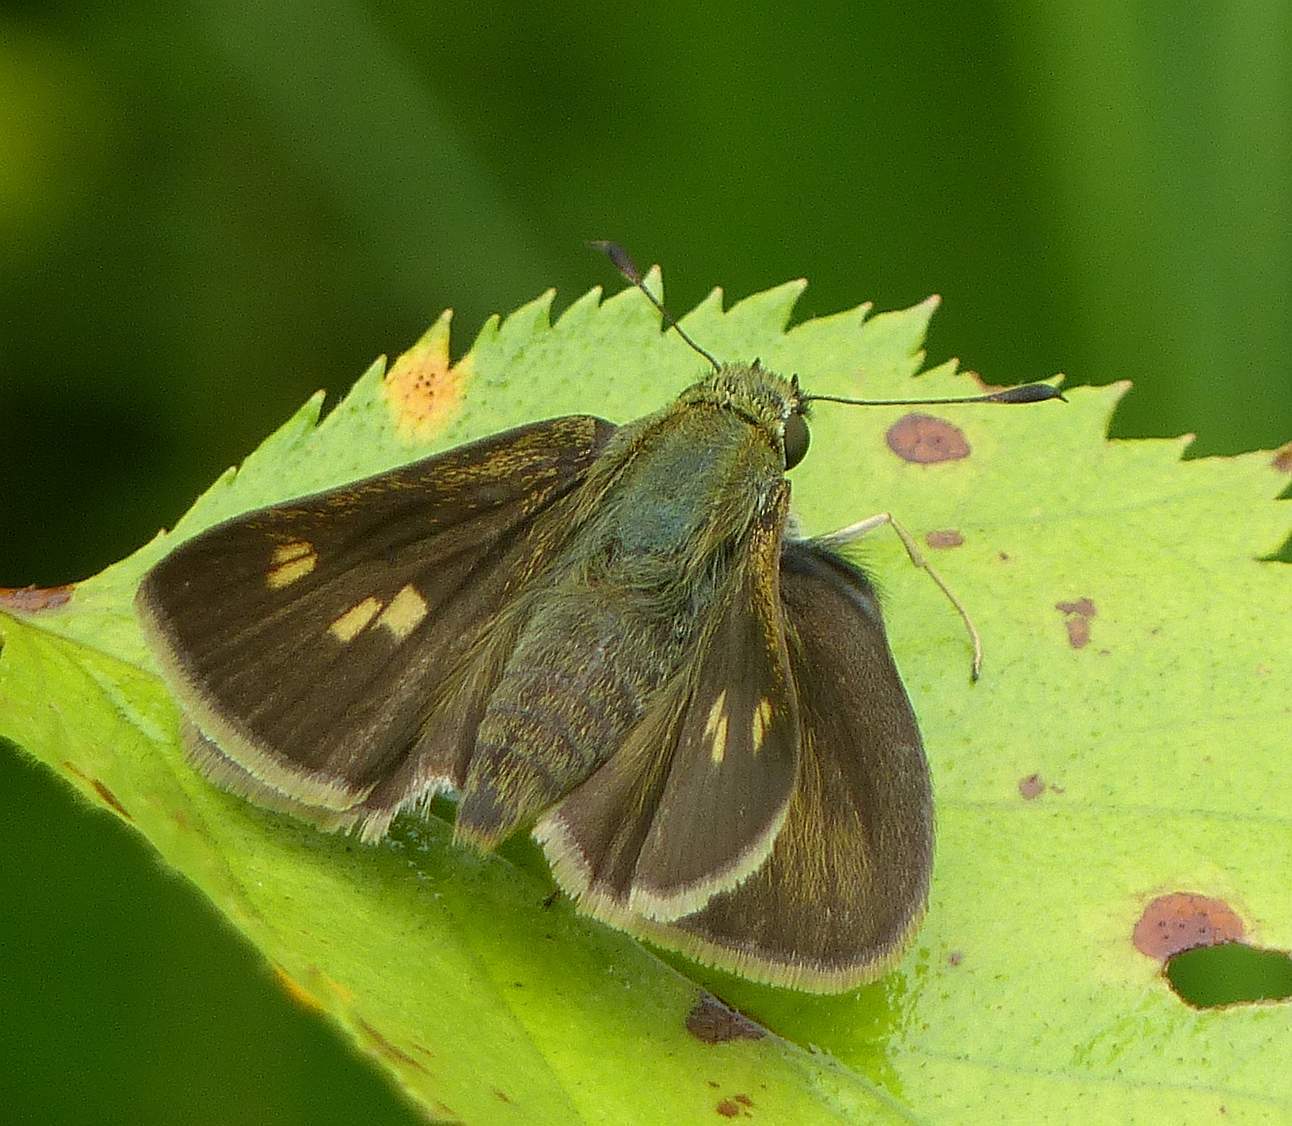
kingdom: Animalia
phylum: Arthropoda
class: Insecta
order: Lepidoptera
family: Hesperiidae
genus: Polites
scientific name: Polites egeremet
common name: Northern broken-dash
